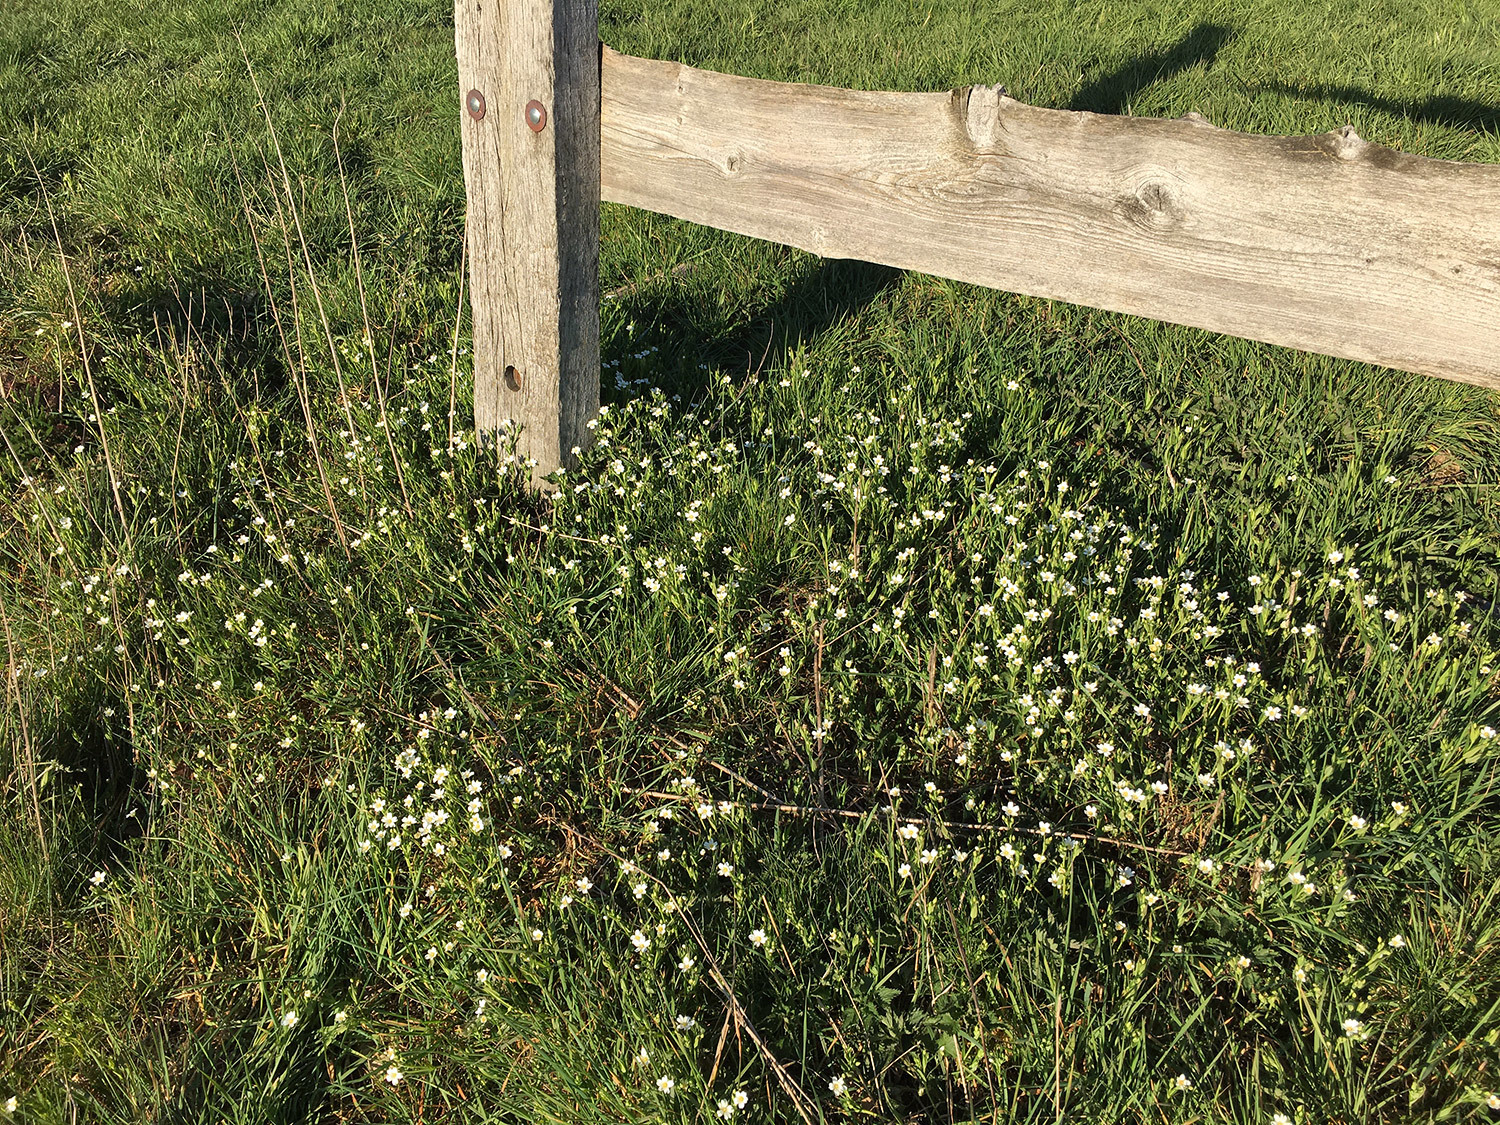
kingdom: Plantae
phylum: Tracheophyta
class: Magnoliopsida
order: Caryophyllales
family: Caryophyllaceae
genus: Rabelera
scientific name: Rabelera holostea
